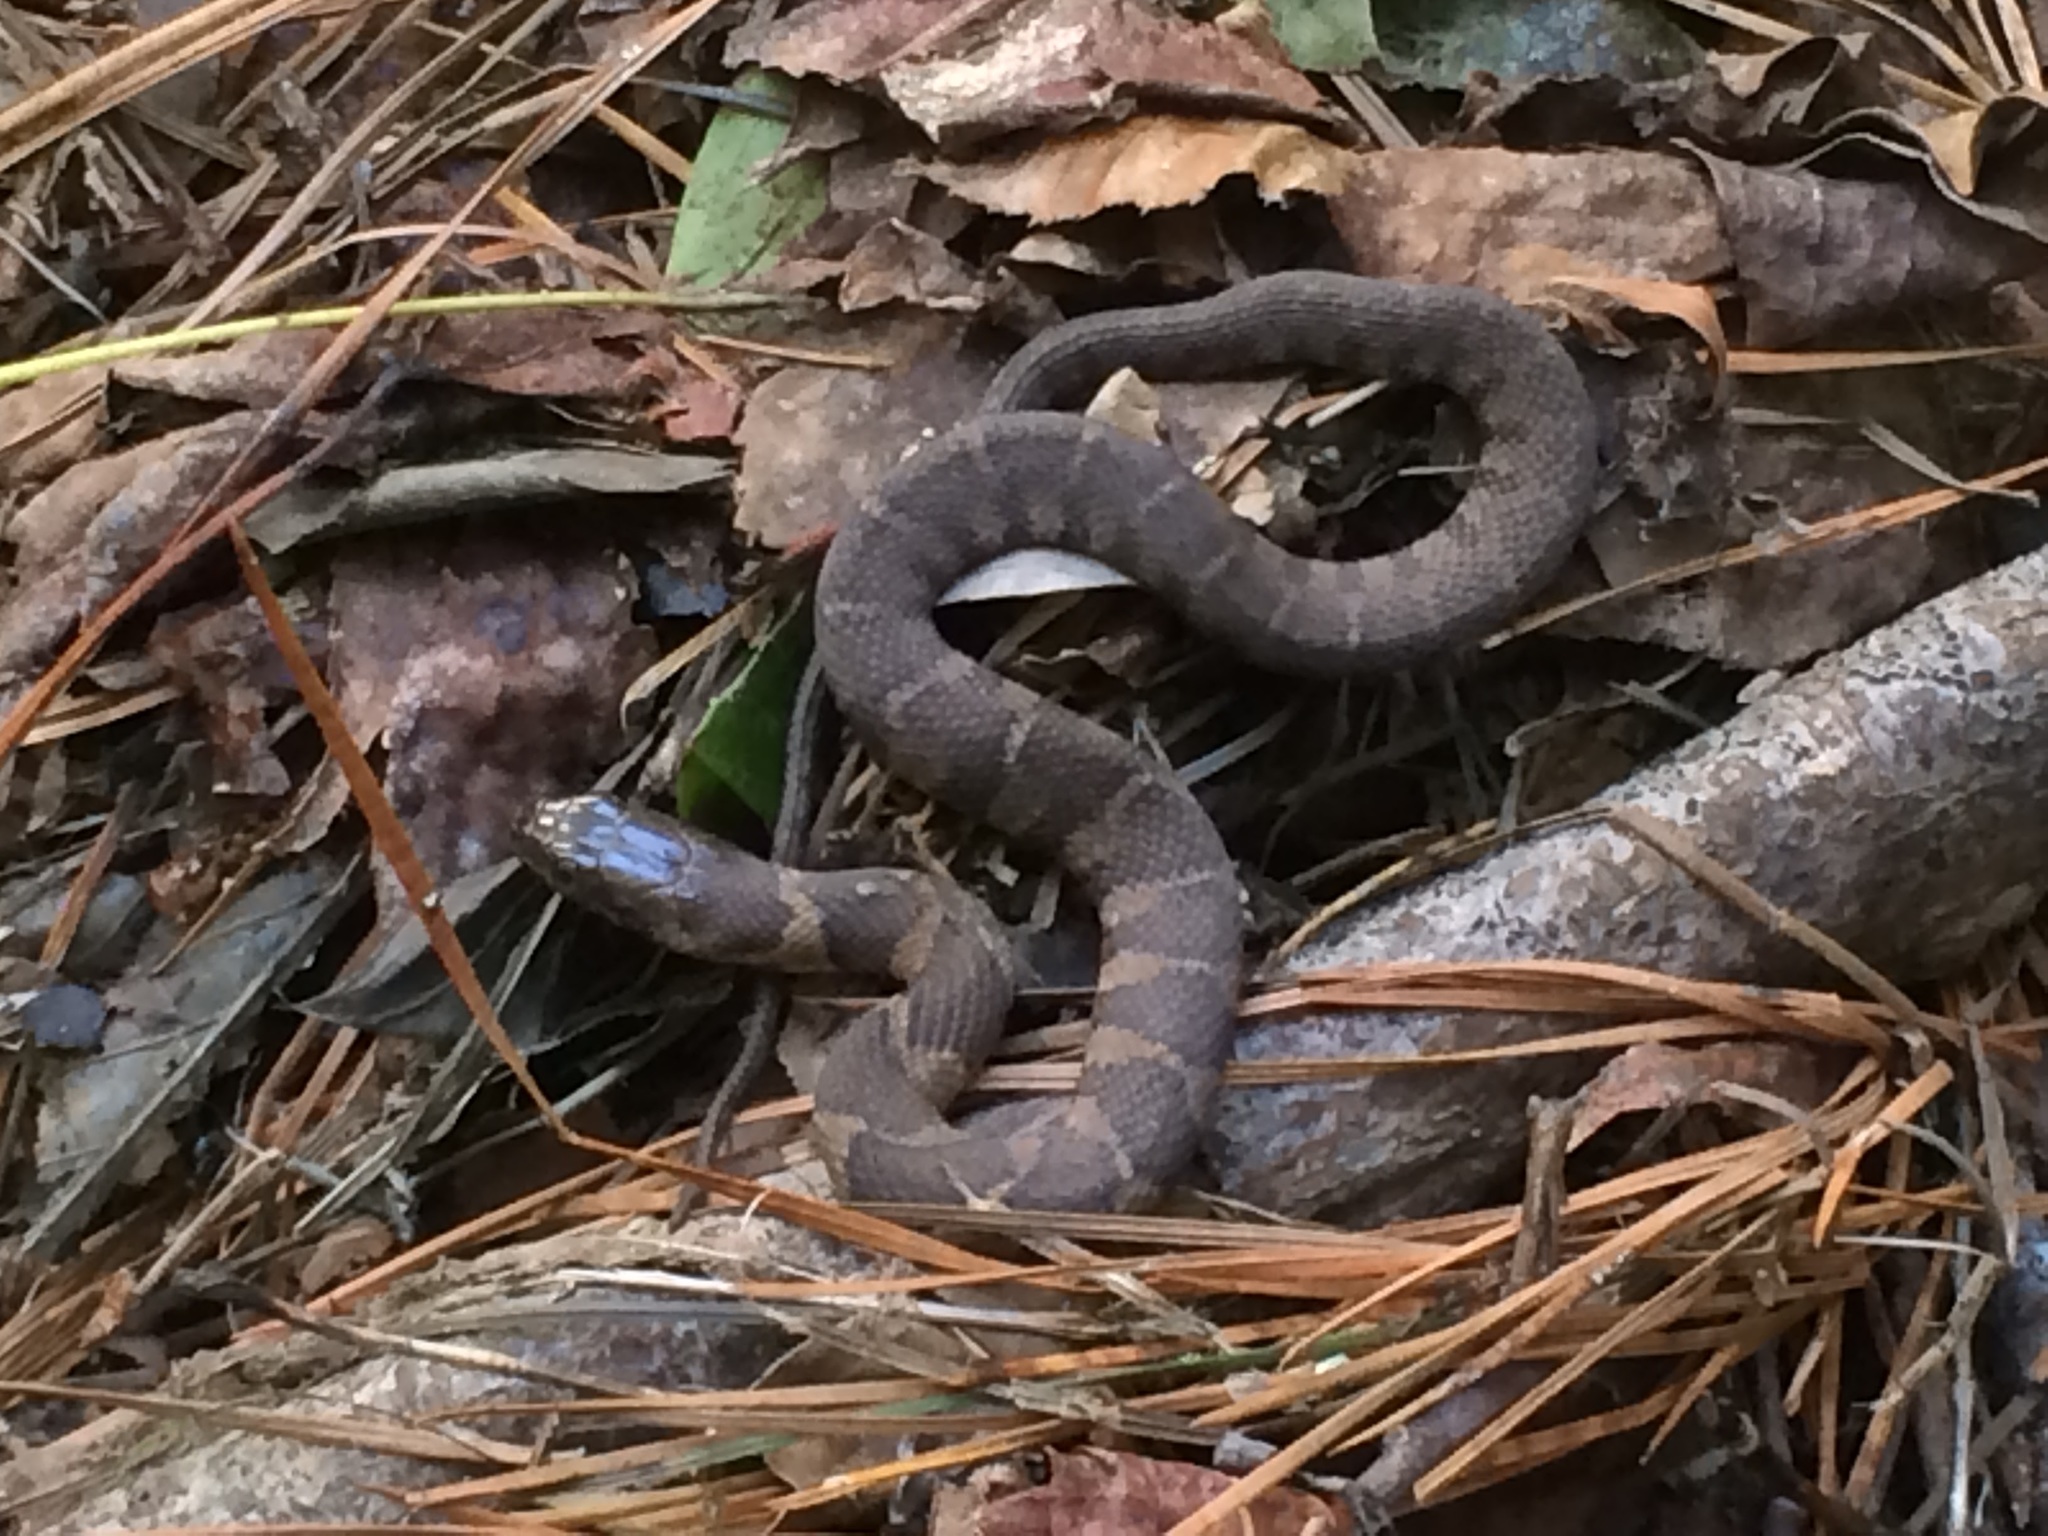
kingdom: Animalia
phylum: Chordata
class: Squamata
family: Colubridae
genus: Nerodia
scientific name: Nerodia sipedon
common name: Northern water snake
